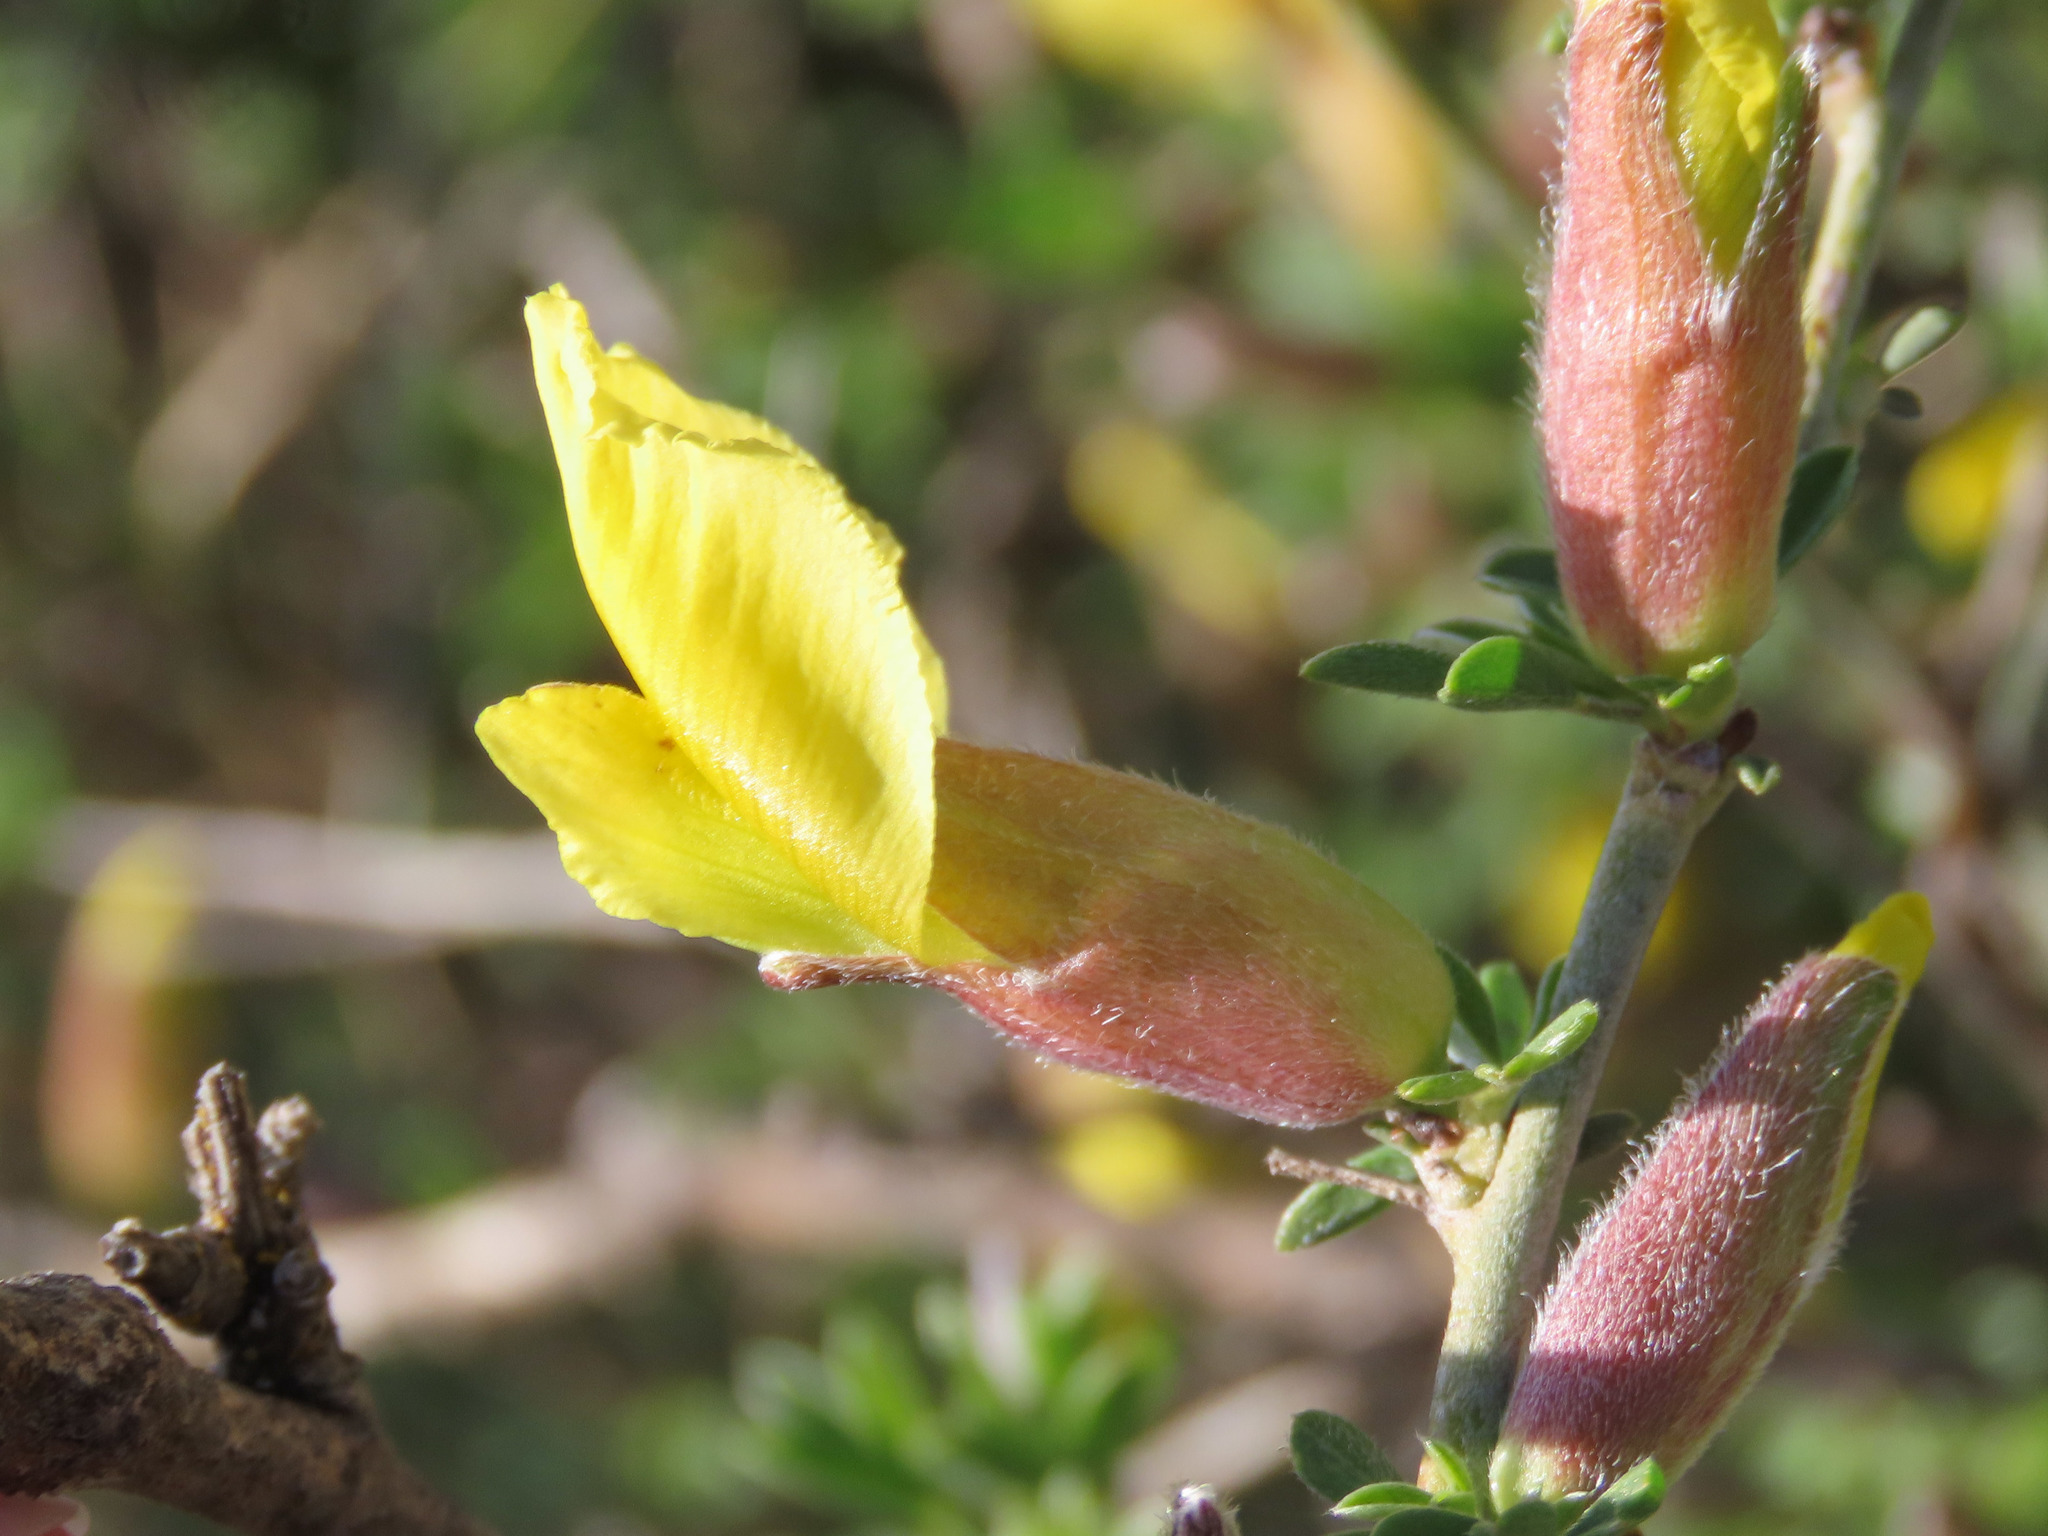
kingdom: Plantae
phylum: Tracheophyta
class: Magnoliopsida
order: Fabales
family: Fabaceae
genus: Chamaecytisus
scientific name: Chamaecytisus spinescens
